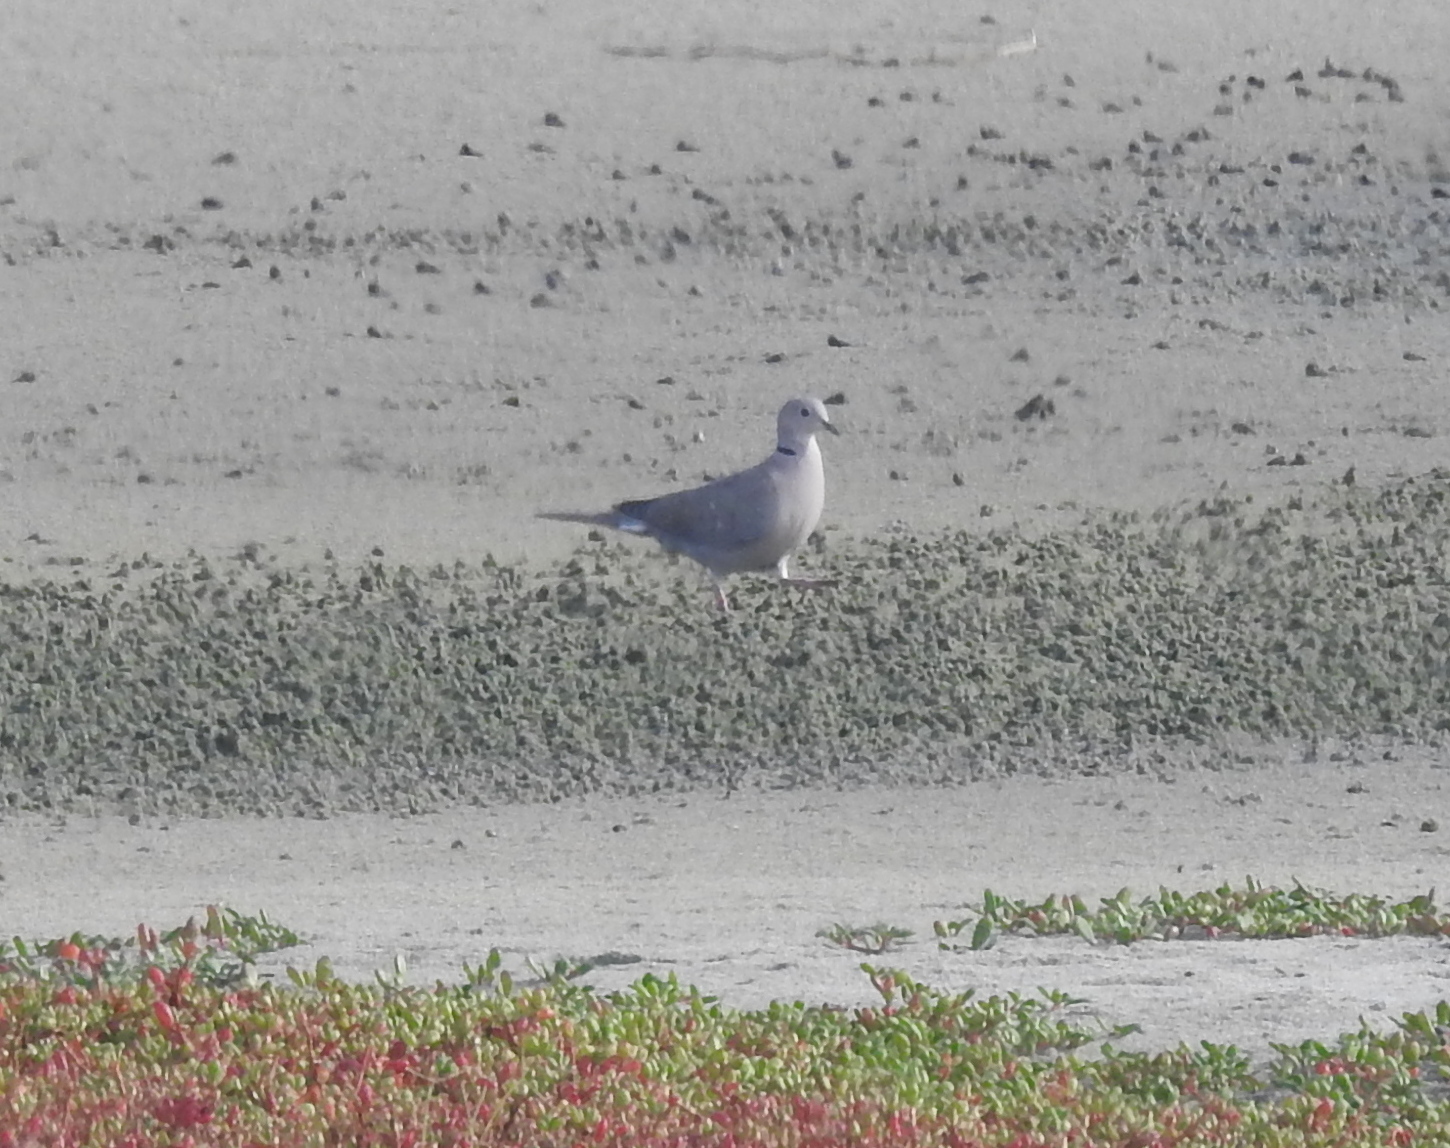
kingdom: Animalia
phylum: Chordata
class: Aves
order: Columbiformes
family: Columbidae
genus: Streptopelia
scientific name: Streptopelia decaocto
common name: Eurasian collared dove
